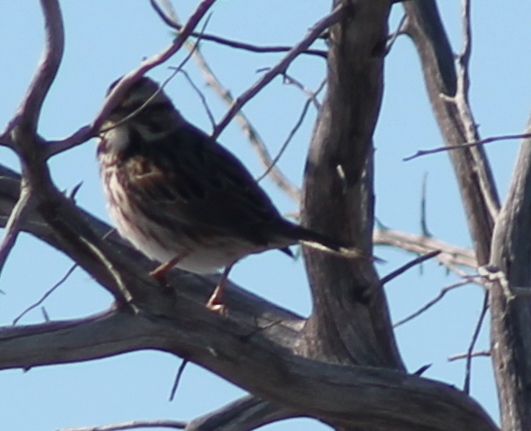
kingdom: Animalia
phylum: Chordata
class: Aves
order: Passeriformes
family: Passerellidae
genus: Melospiza
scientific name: Melospiza melodia
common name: Song sparrow
